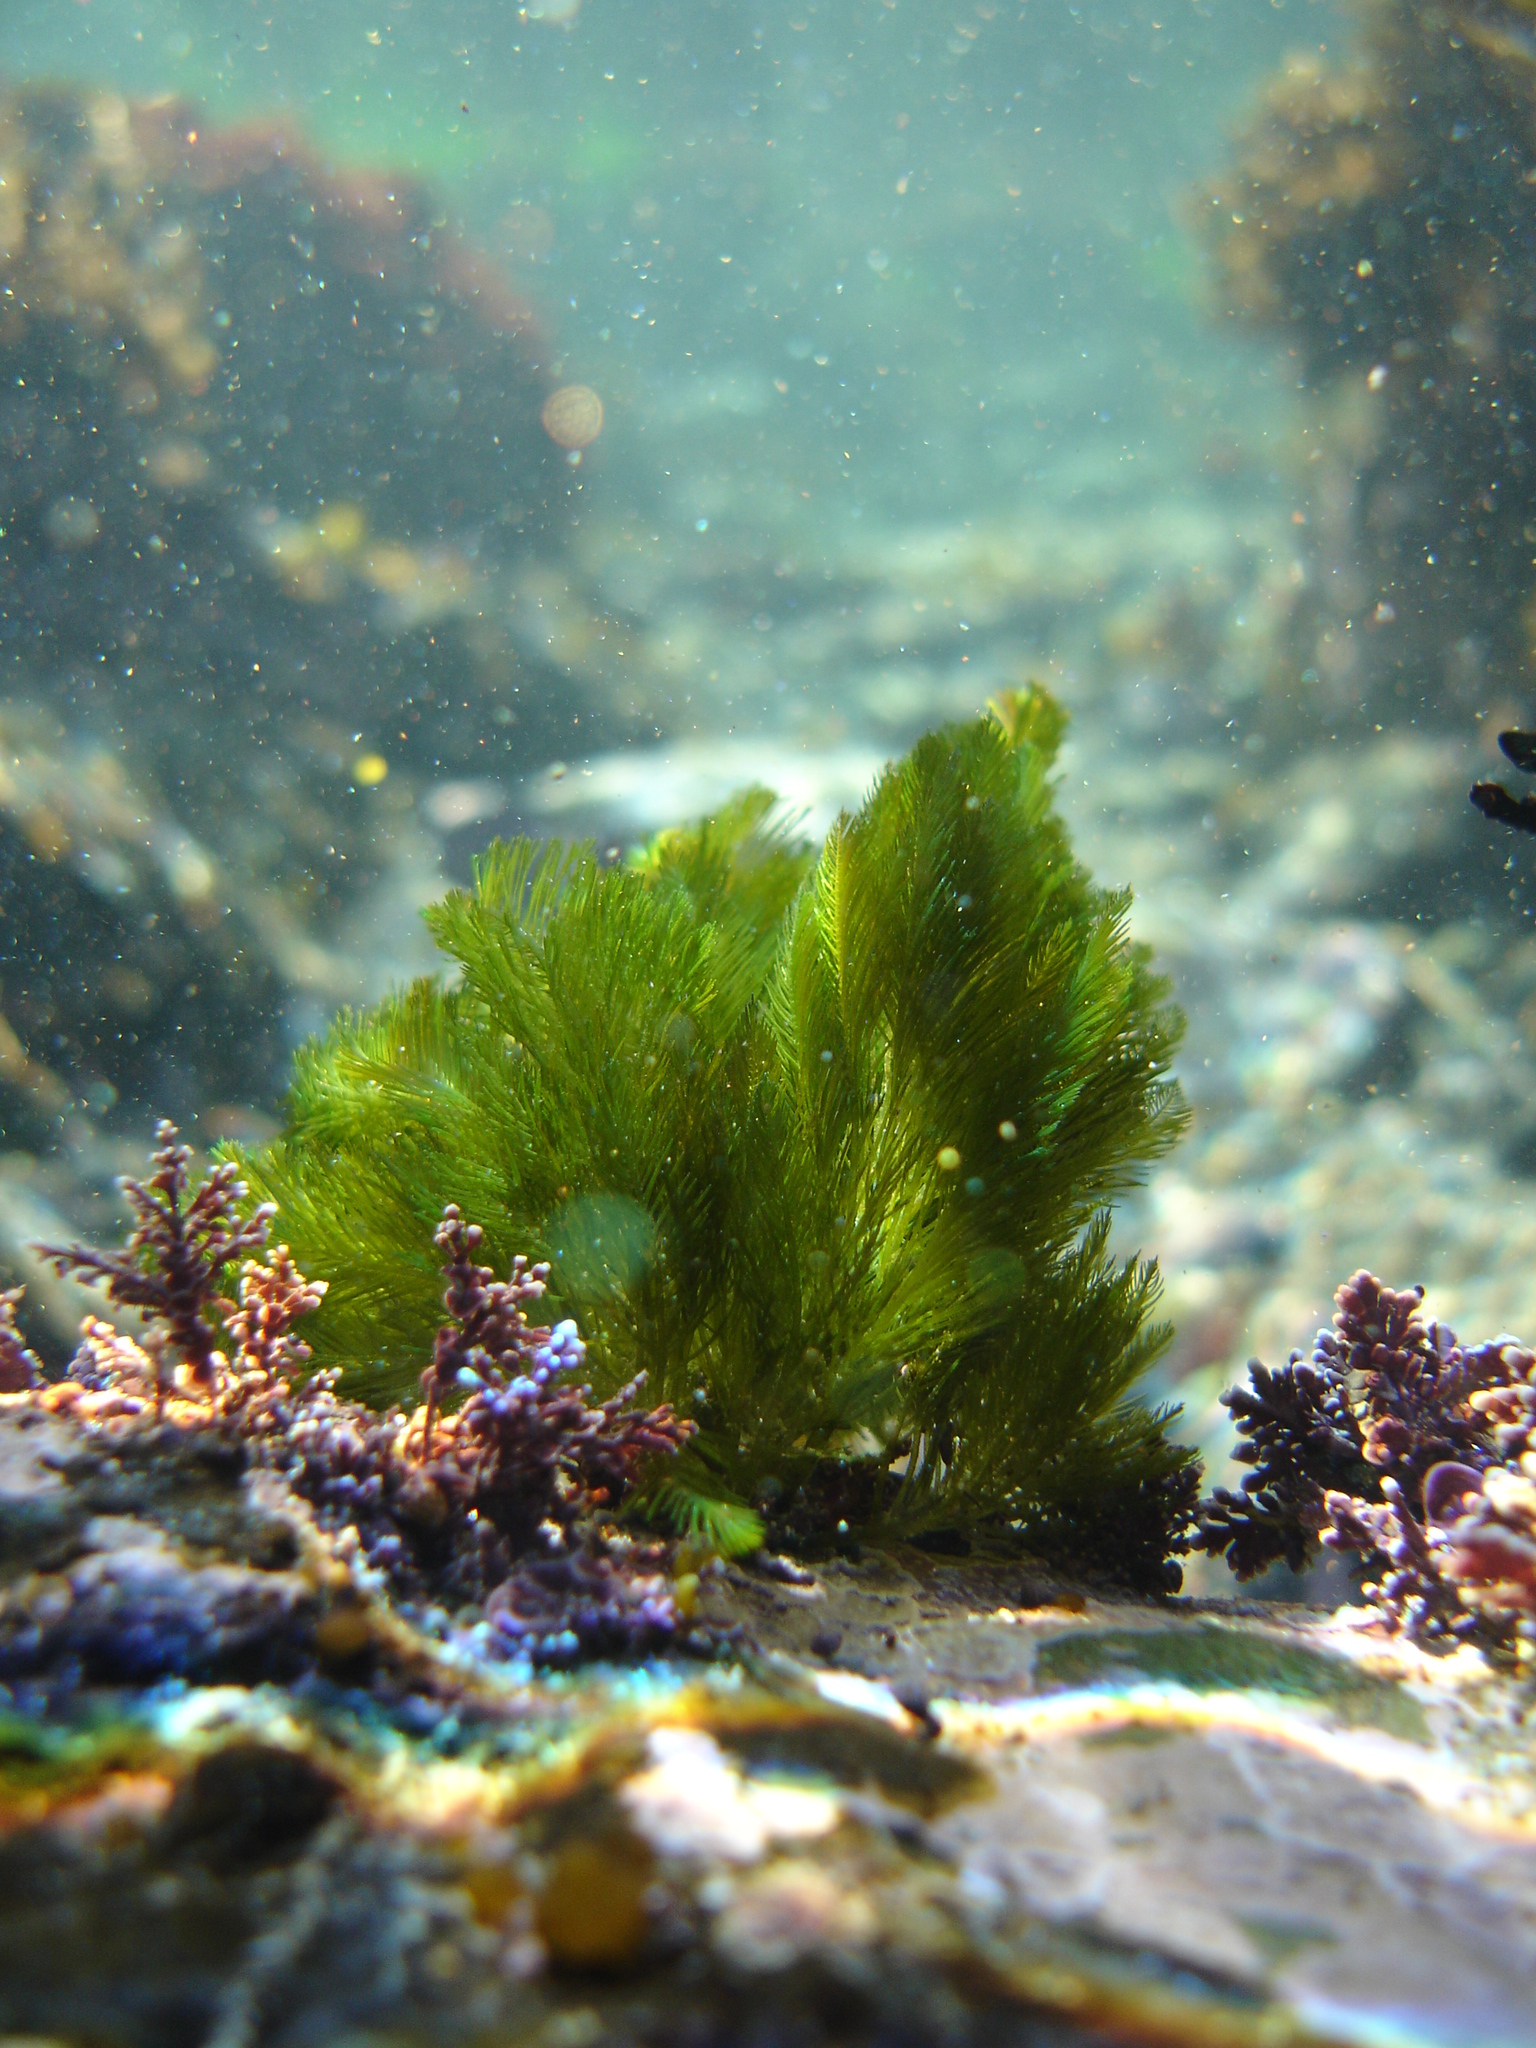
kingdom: Plantae
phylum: Chlorophyta
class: Ulvophyceae
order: Bryopsidales
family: Bryopsidaceae
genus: Bryopsis
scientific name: Bryopsis plumosa
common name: Hen pen
